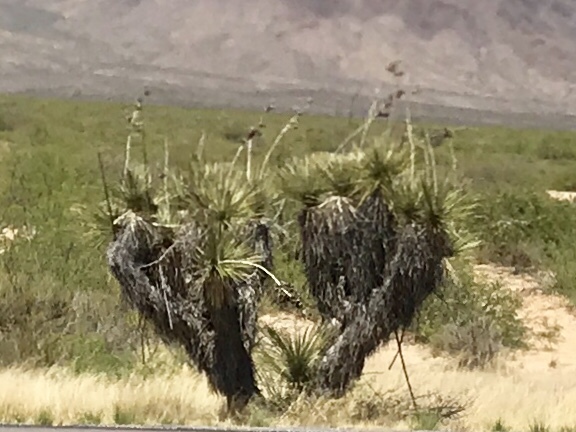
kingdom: Plantae
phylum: Tracheophyta
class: Liliopsida
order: Asparagales
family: Asparagaceae
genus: Yucca
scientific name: Yucca elata
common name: Palmella
